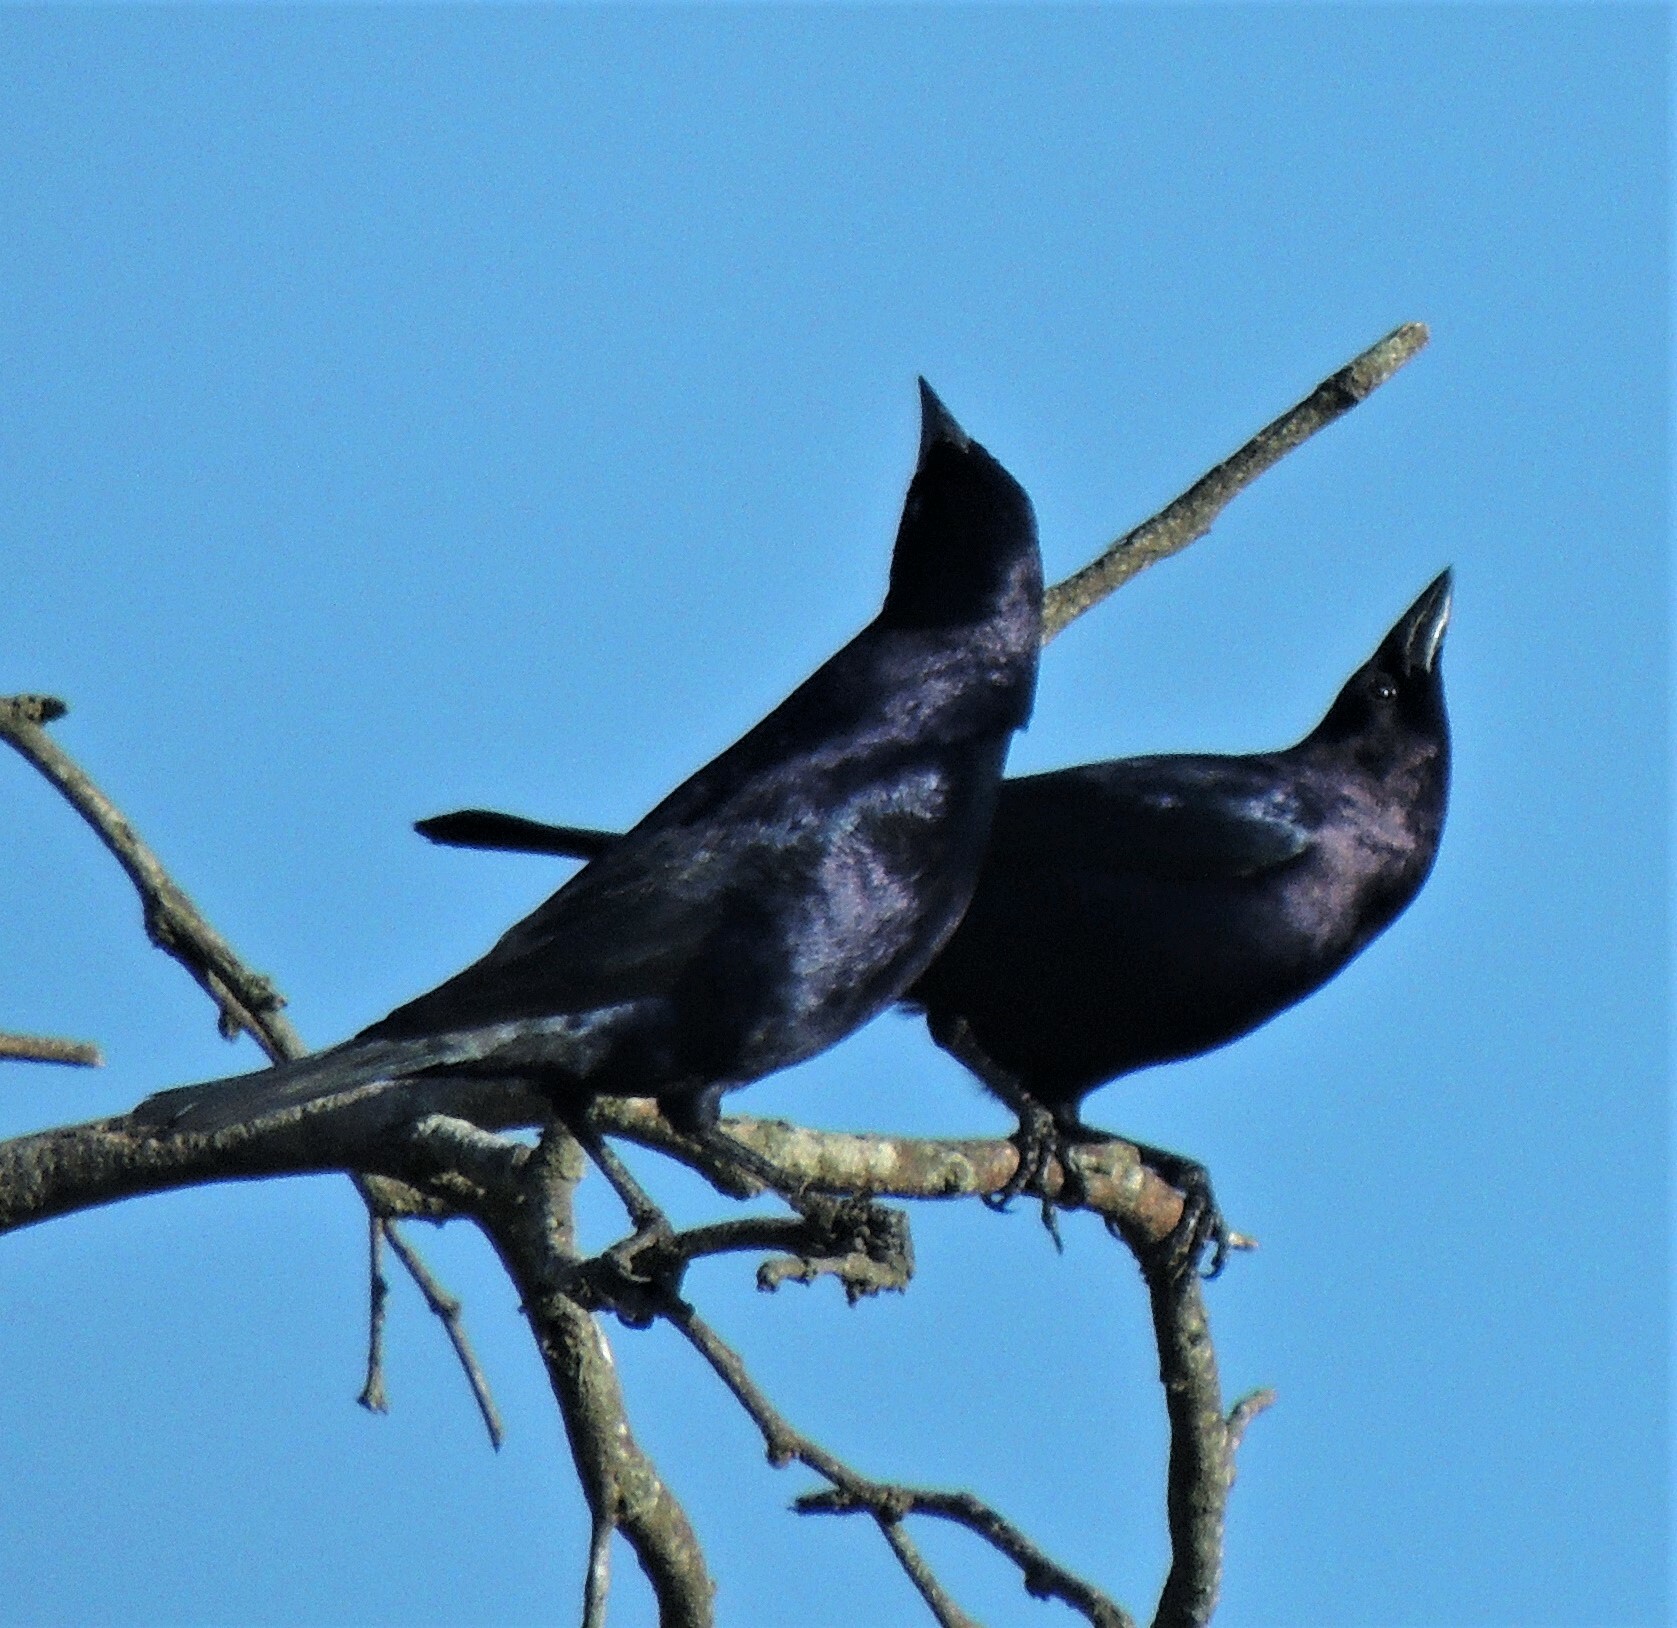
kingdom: Animalia
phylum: Chordata
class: Aves
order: Passeriformes
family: Icteridae
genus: Molothrus
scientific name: Molothrus bonariensis
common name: Shiny cowbird
